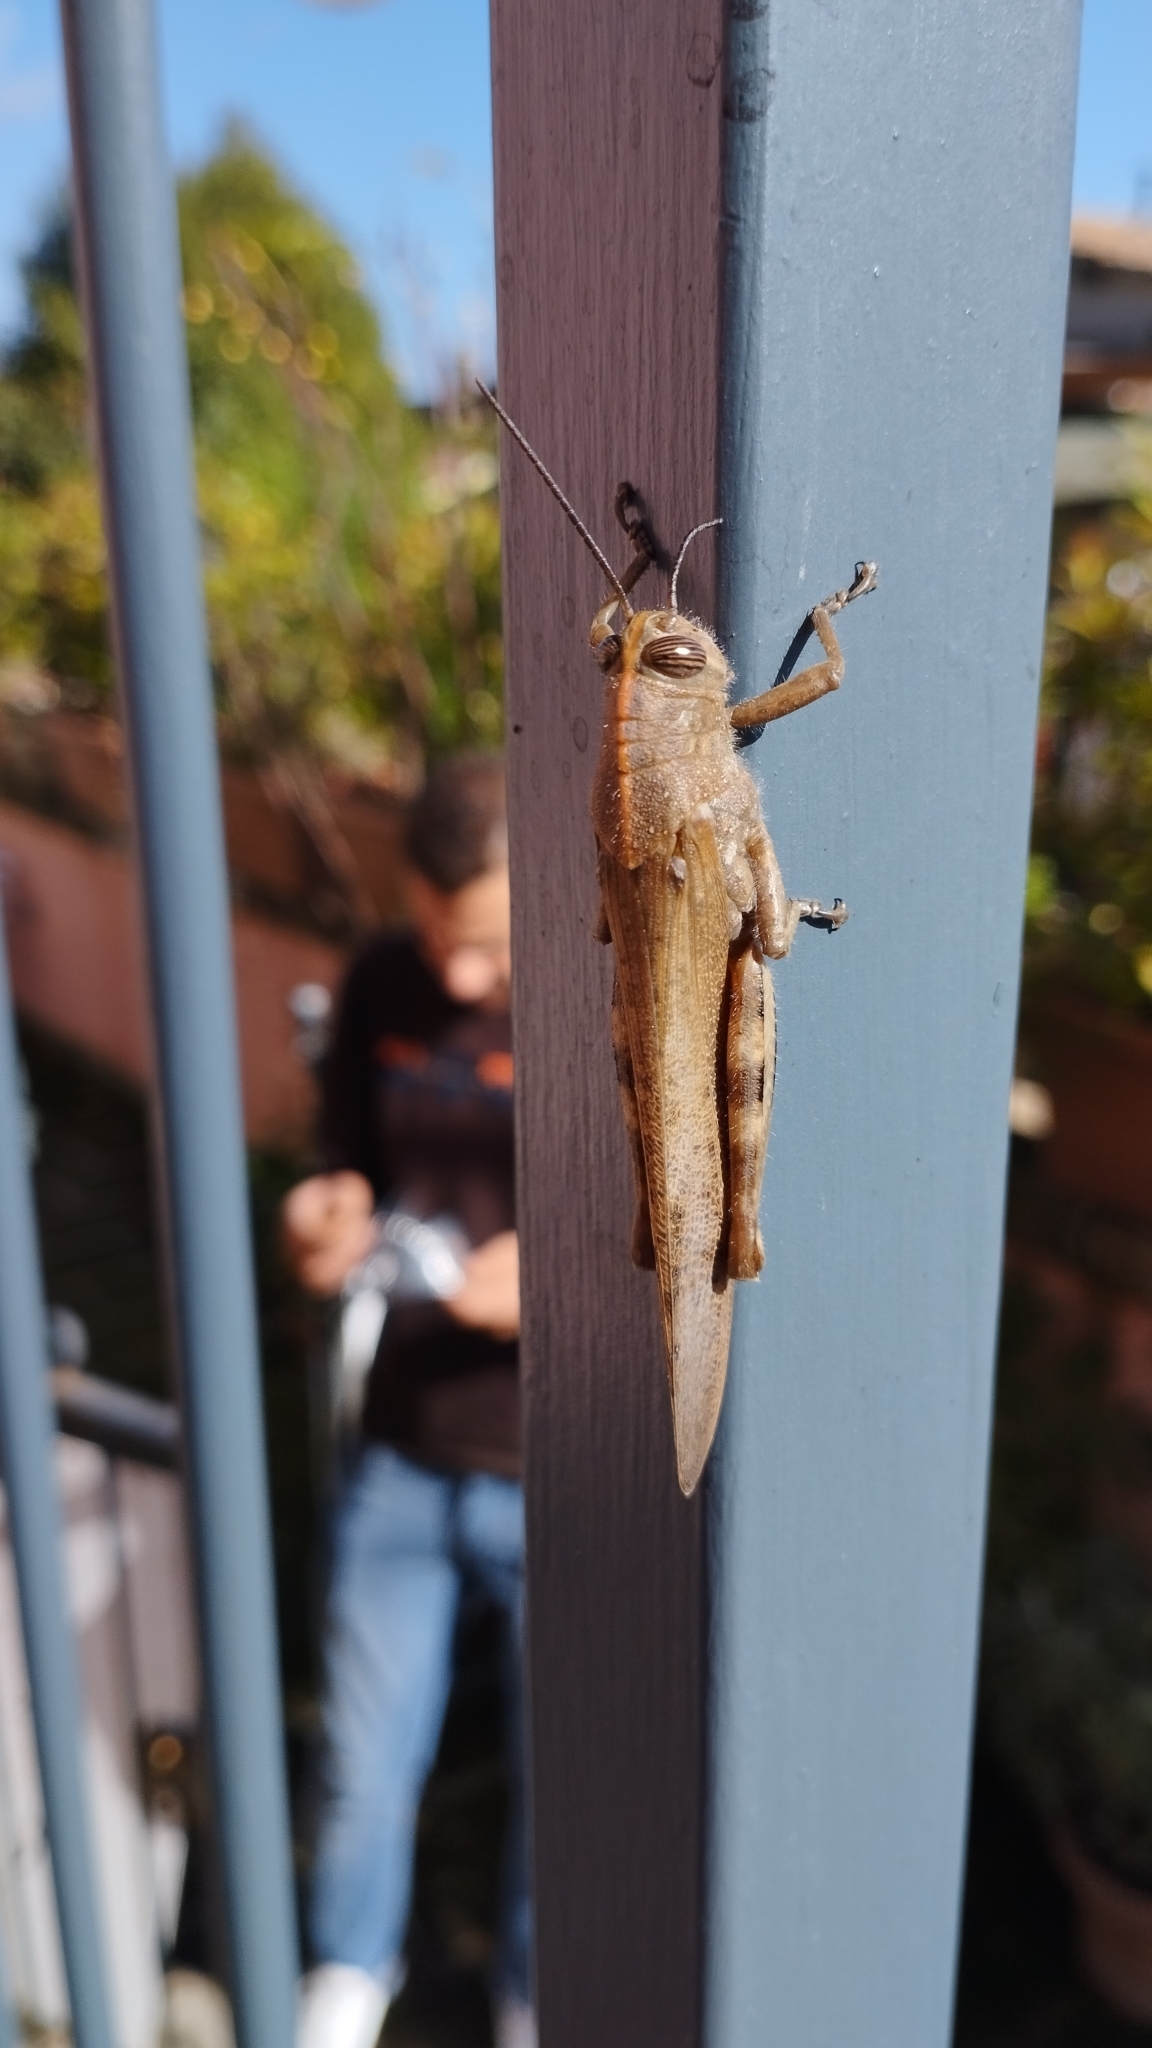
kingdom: Animalia
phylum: Arthropoda
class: Insecta
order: Orthoptera
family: Acrididae
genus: Anacridium
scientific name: Anacridium aegyptium
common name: Egyptian grasshopper
